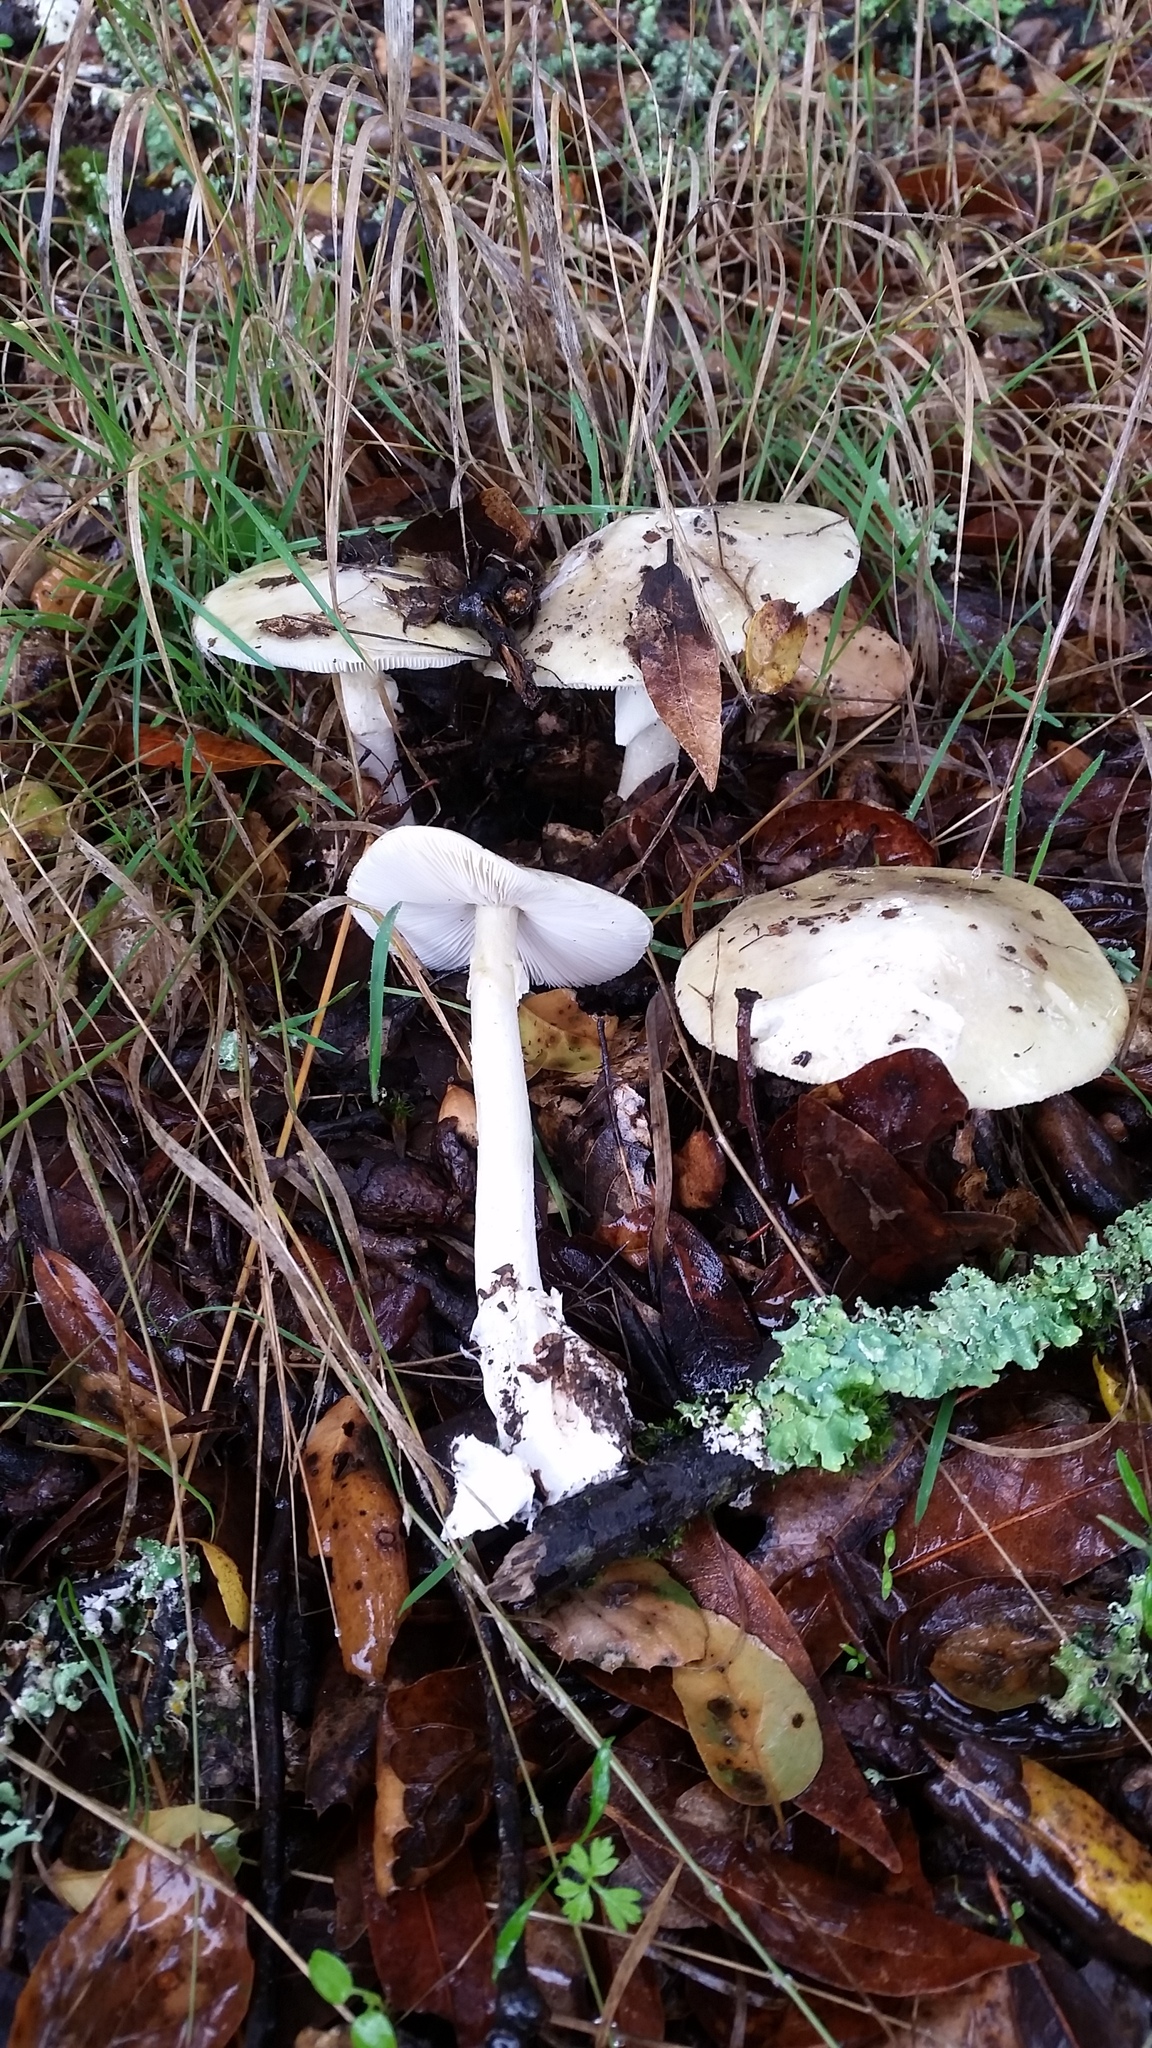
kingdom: Fungi
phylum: Basidiomycota
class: Agaricomycetes
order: Agaricales
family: Amanitaceae
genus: Amanita
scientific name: Amanita phalloides
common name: Death cap
